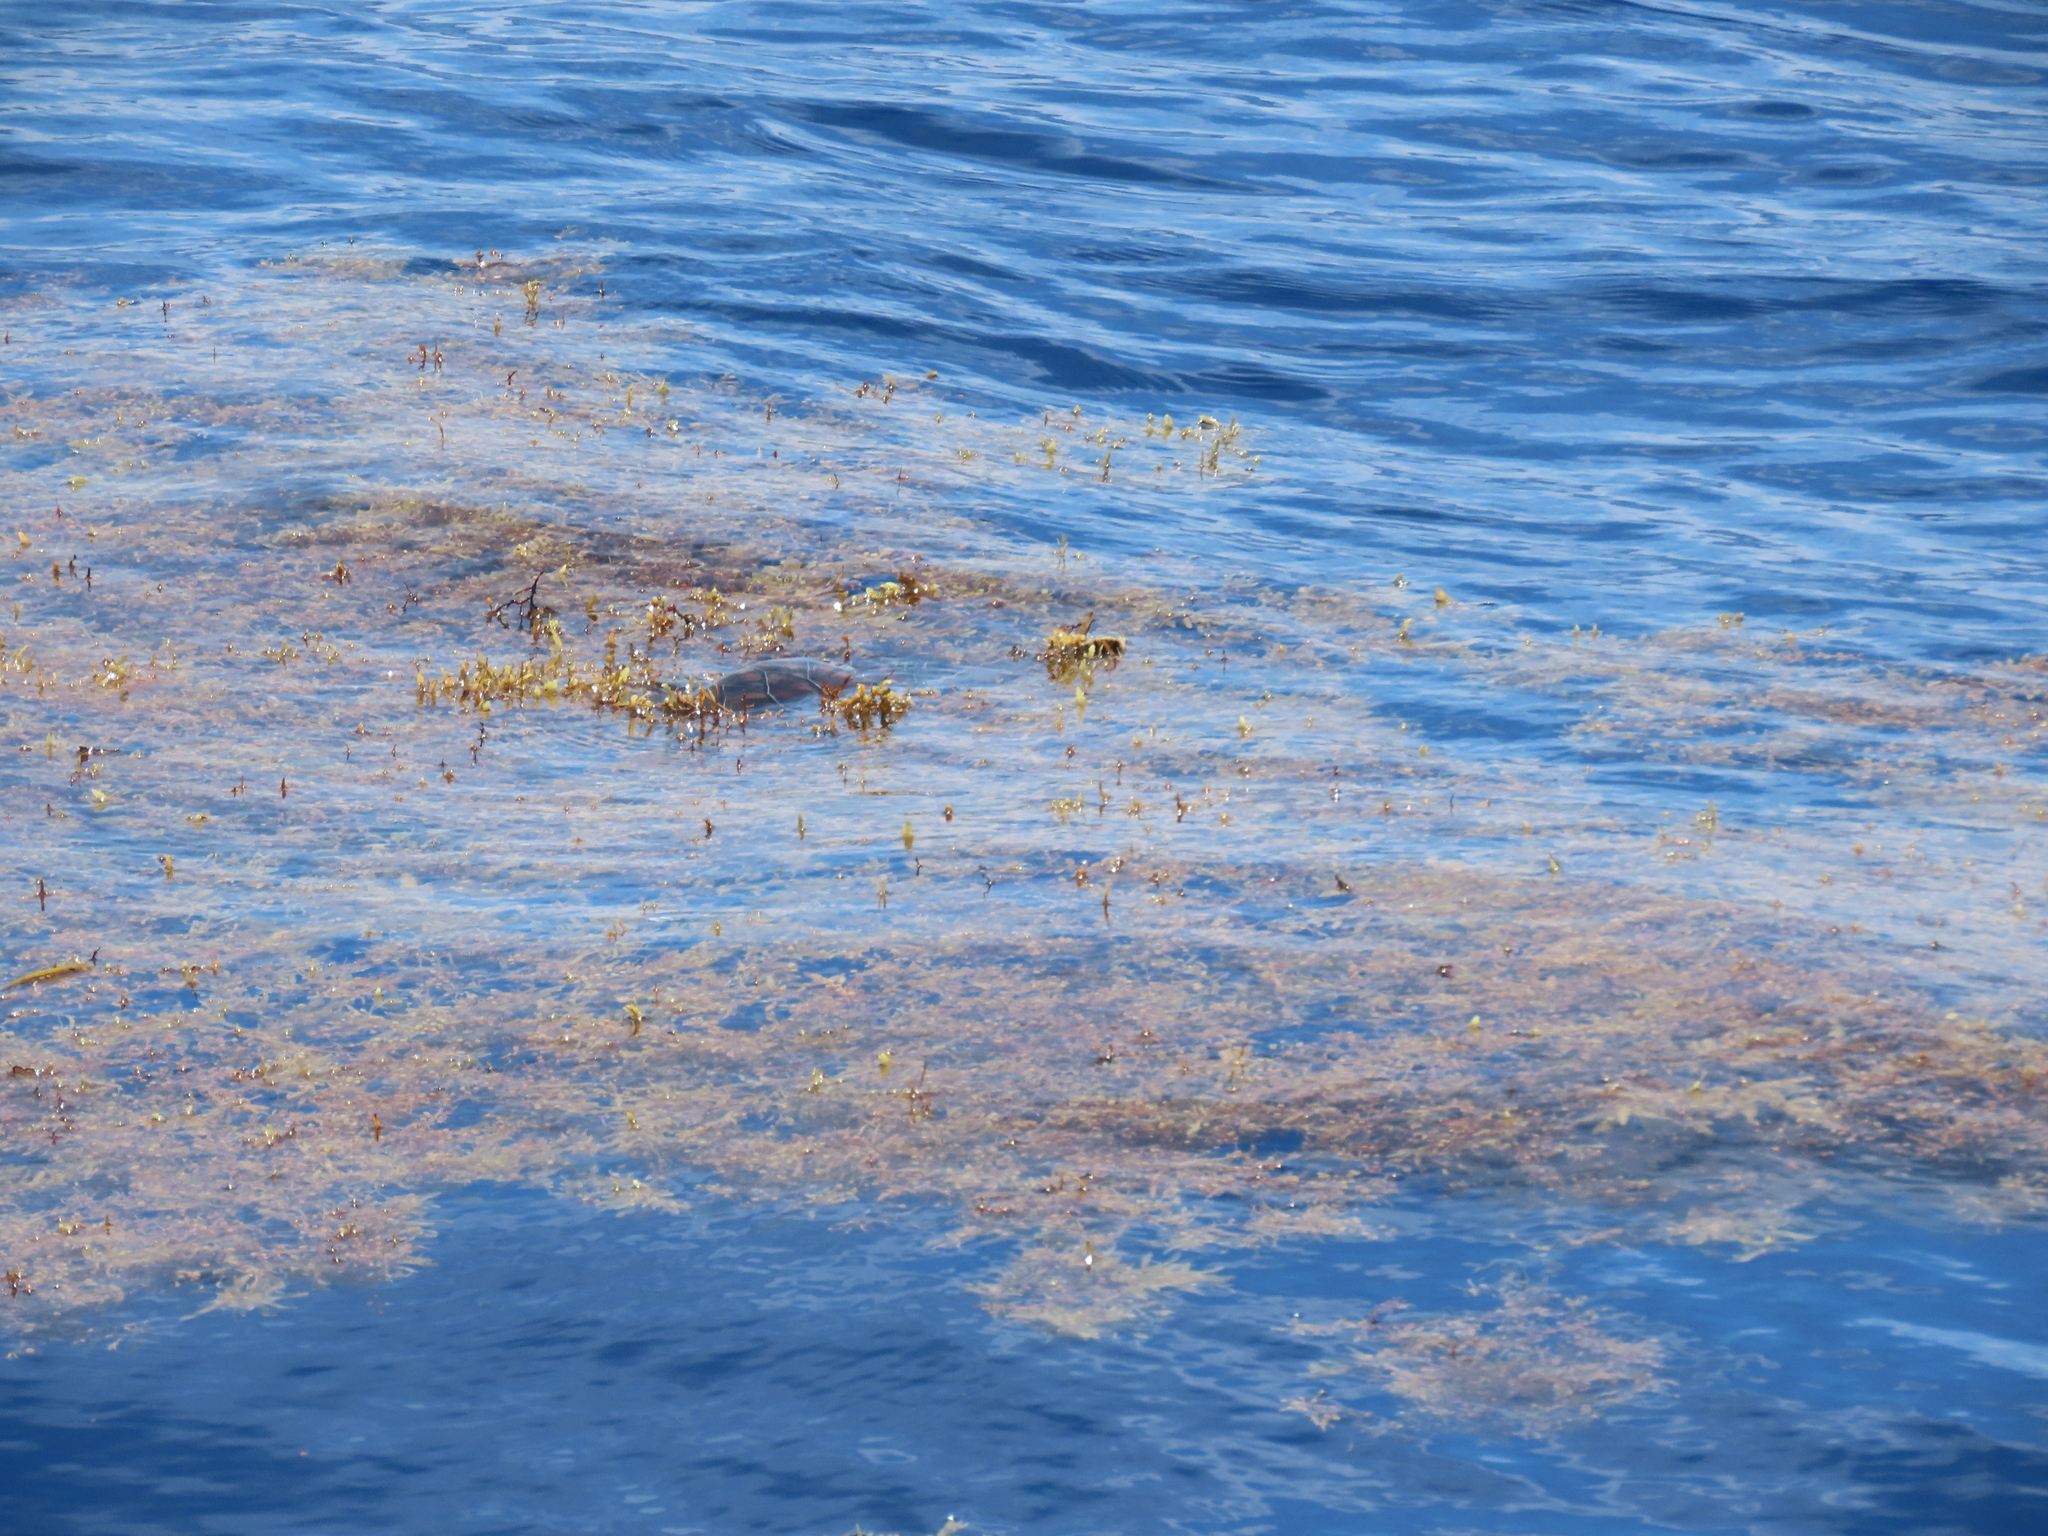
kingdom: Animalia
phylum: Chordata
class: Testudines
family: Cheloniidae
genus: Chelonia
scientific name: Chelonia mydas
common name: Green turtle
